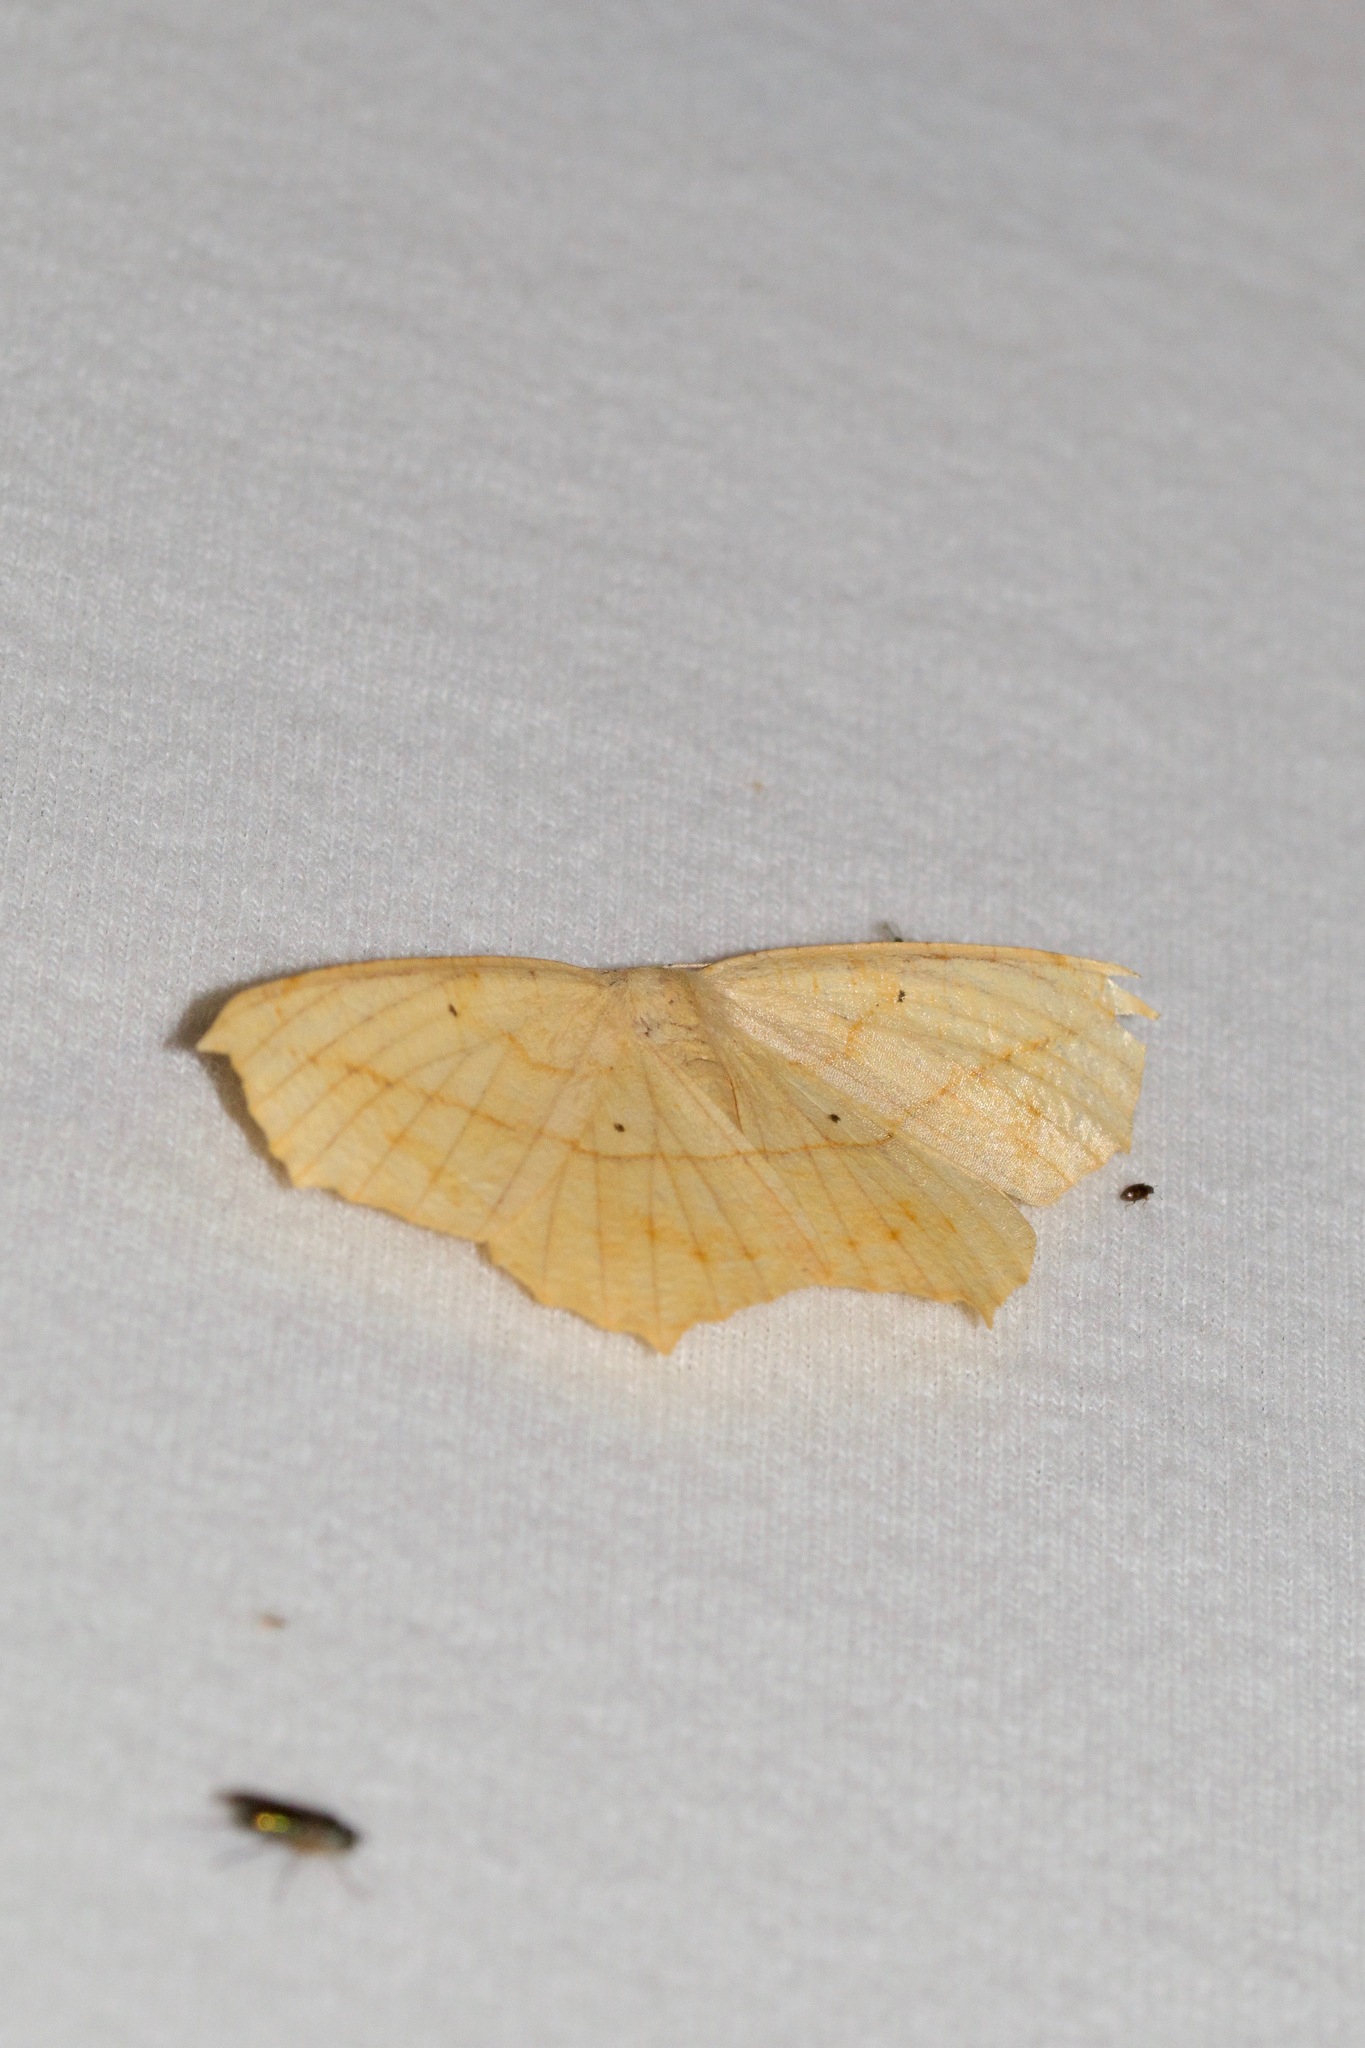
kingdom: Animalia
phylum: Arthropoda
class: Insecta
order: Lepidoptera
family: Geometridae
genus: Prochoerodes
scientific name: Prochoerodes lineola
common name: Large maple spanworm
